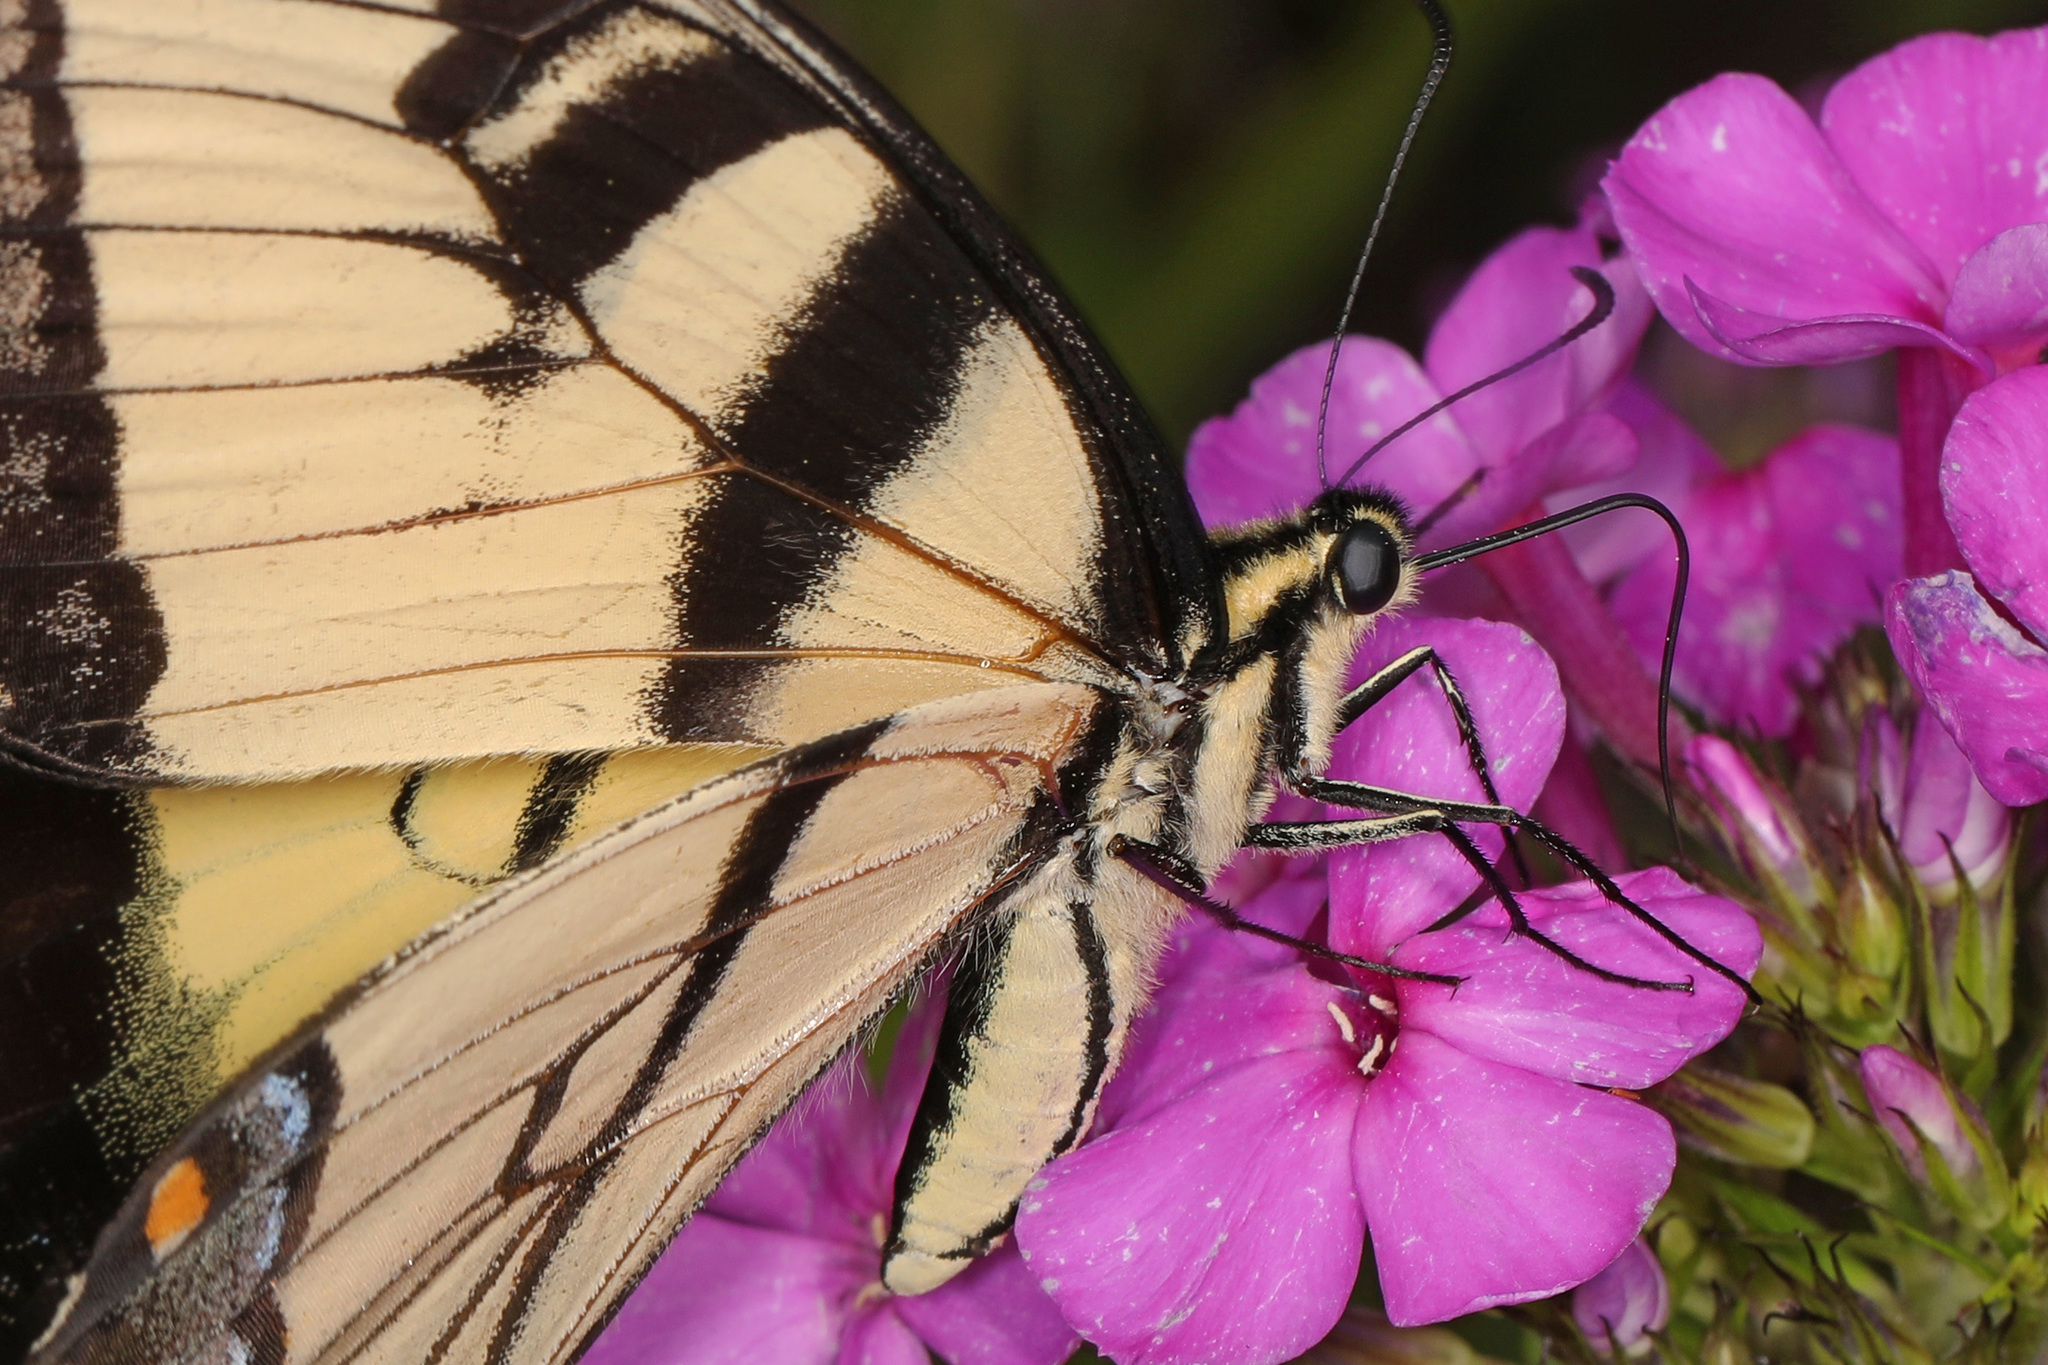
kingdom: Animalia
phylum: Arthropoda
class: Insecta
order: Lepidoptera
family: Papilionidae
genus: Papilio
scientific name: Papilio glaucus
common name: Tiger swallowtail
